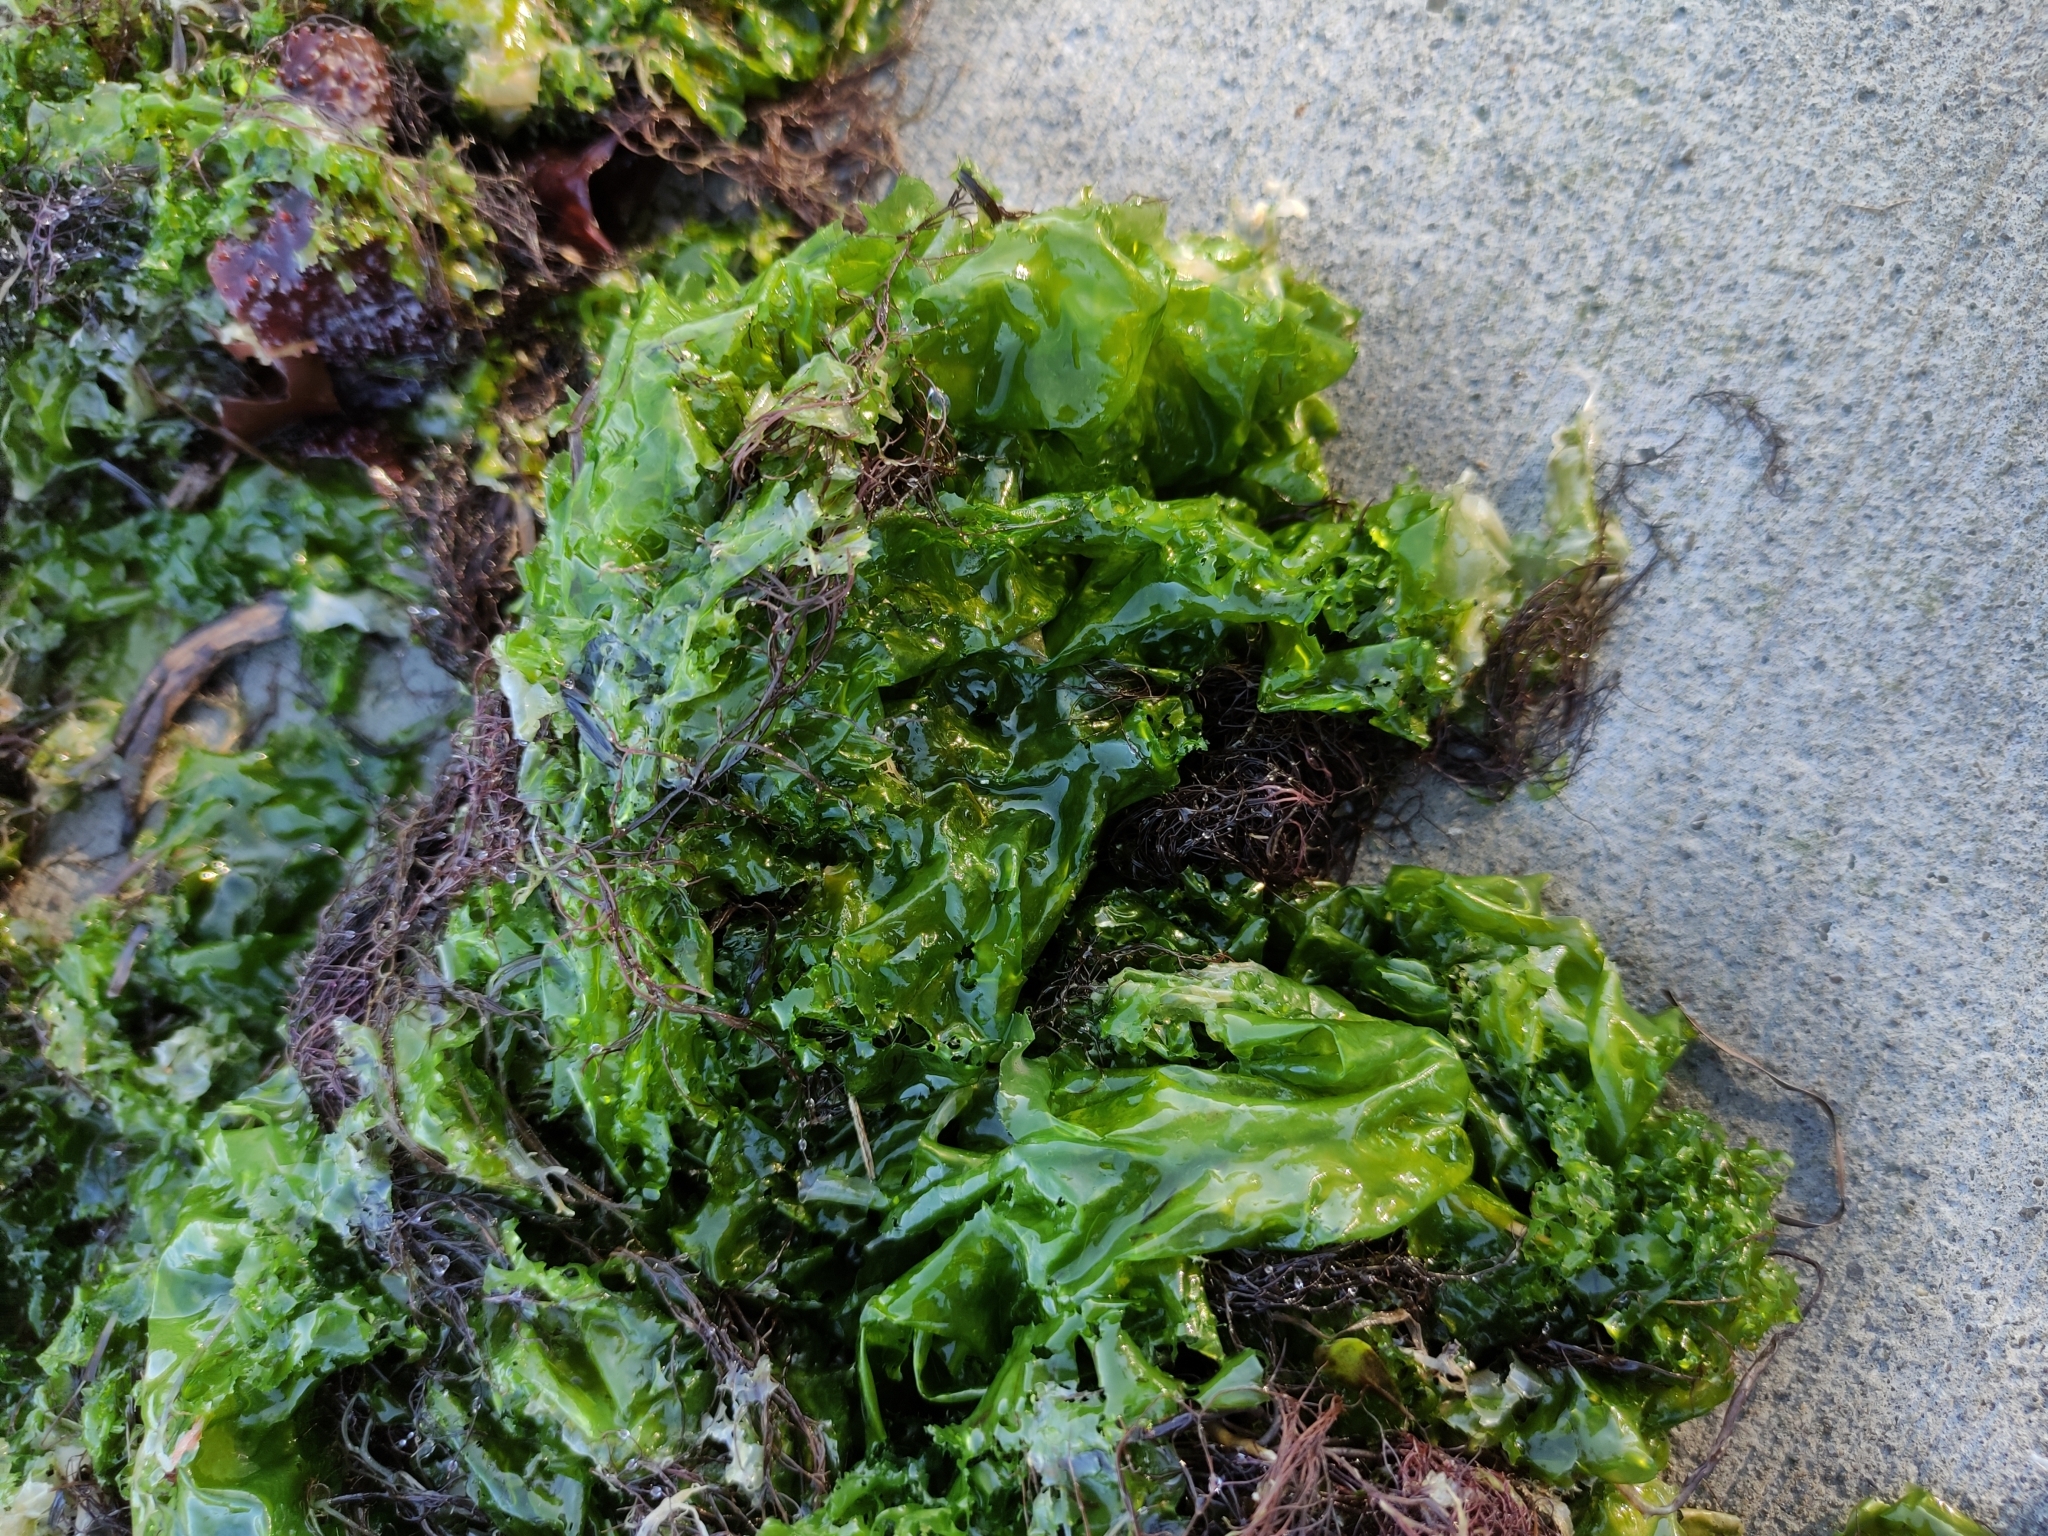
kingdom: Plantae
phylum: Chlorophyta
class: Ulvophyceae
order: Ulvales
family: Ulvaceae
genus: Ulva
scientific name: Ulva
